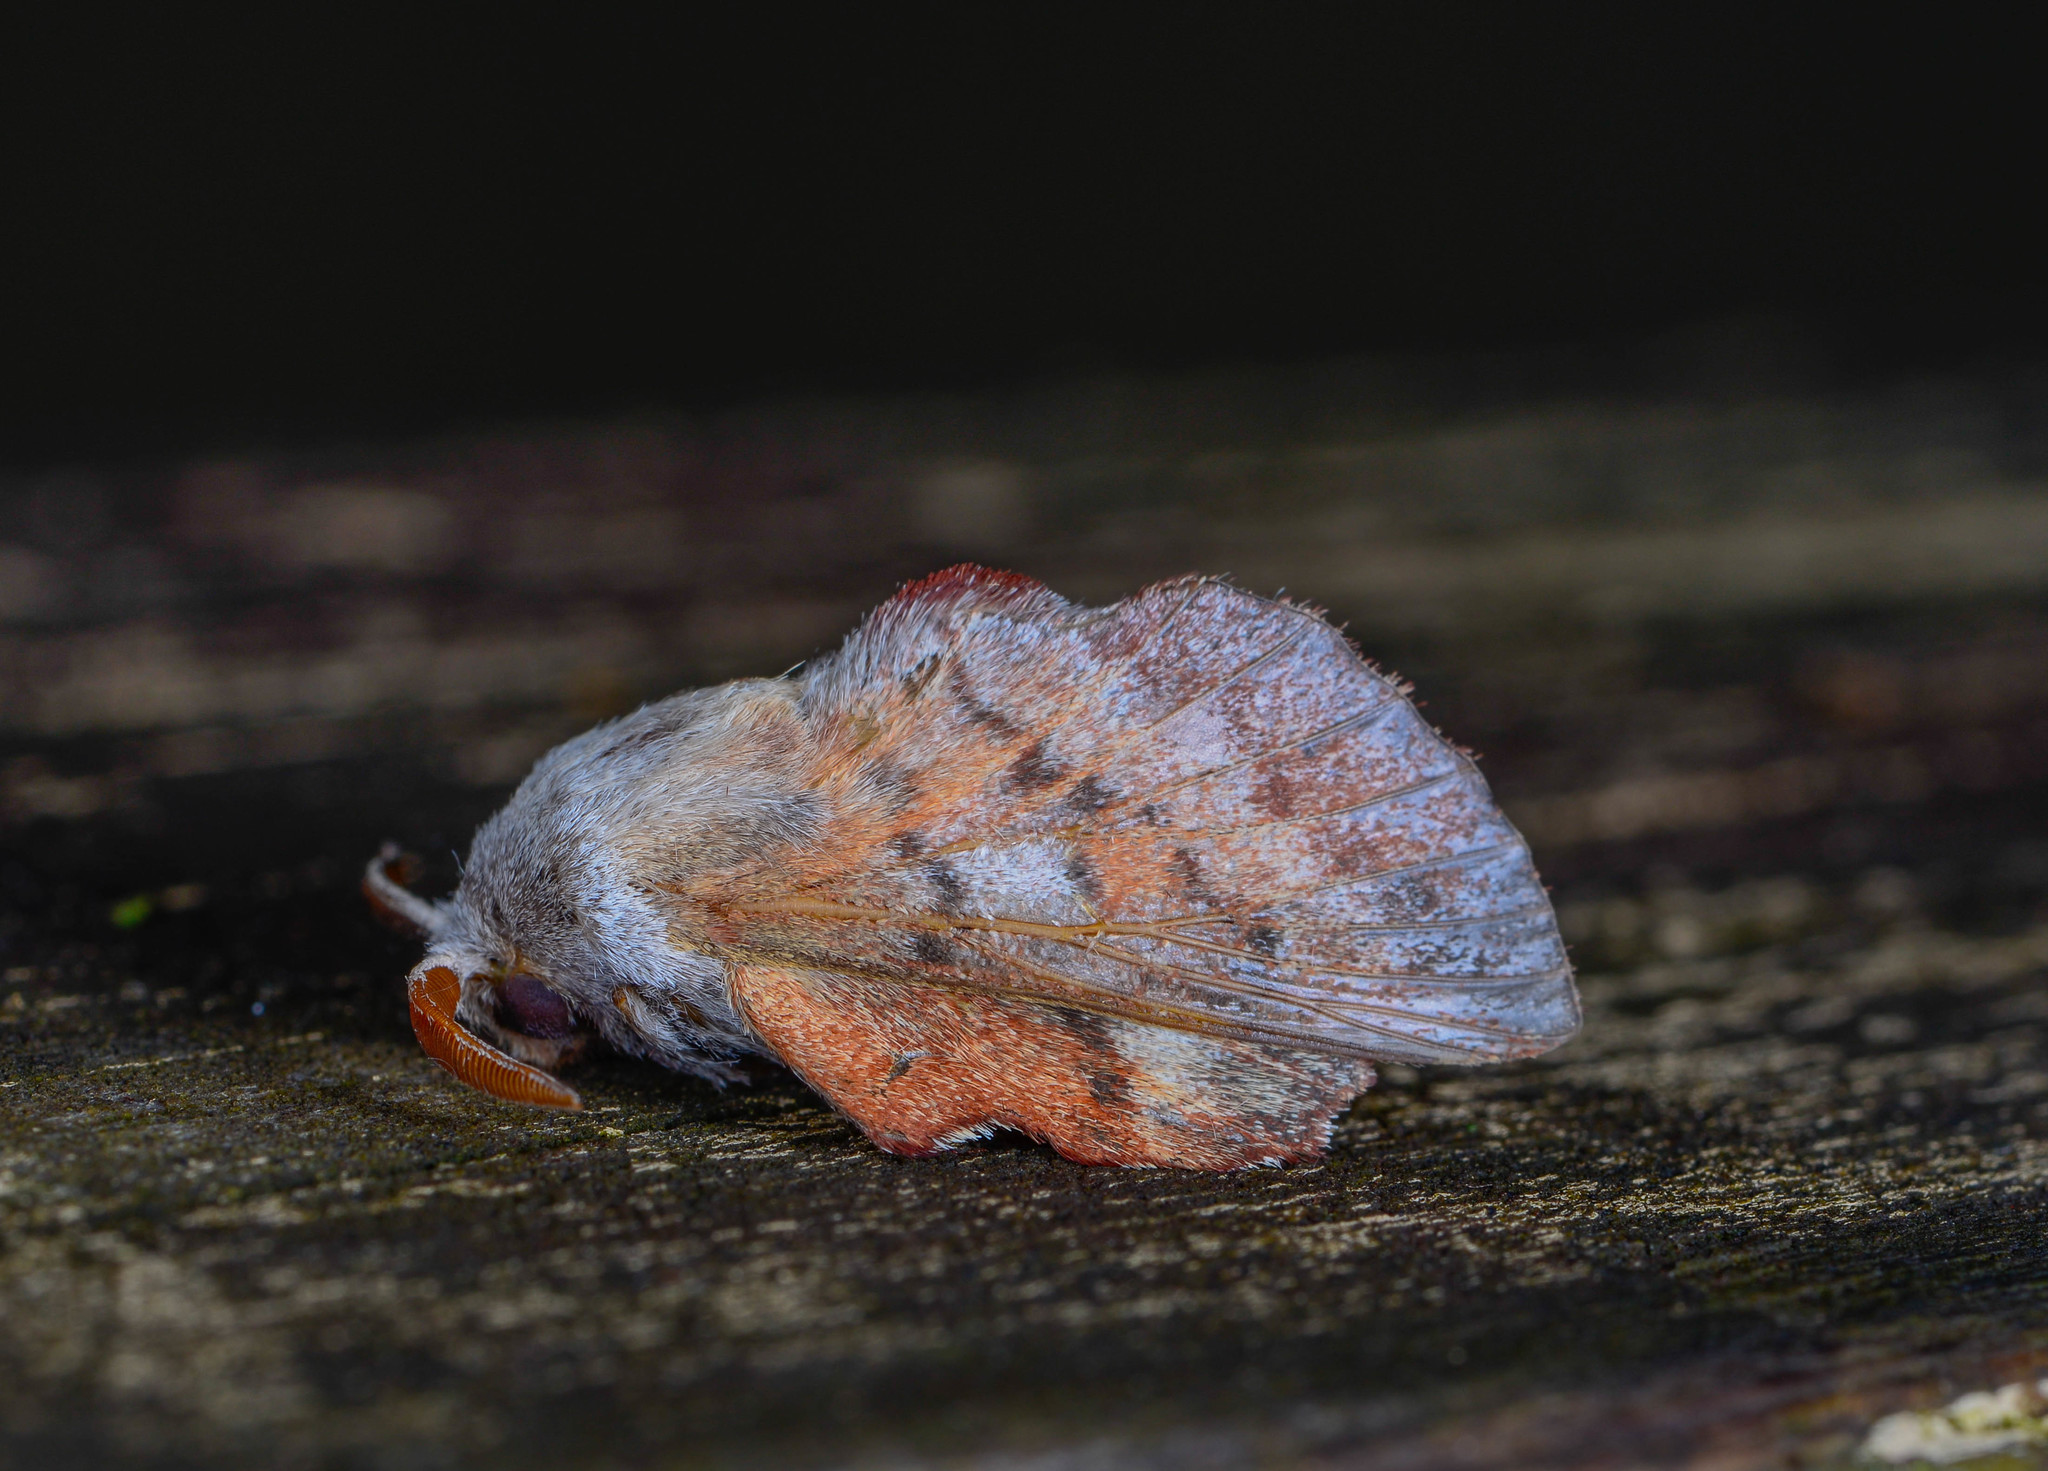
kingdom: Animalia
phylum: Arthropoda
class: Insecta
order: Lepidoptera
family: Lasiocampidae
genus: Phyllodesma
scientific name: Phyllodesma americana
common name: American lappet moth
